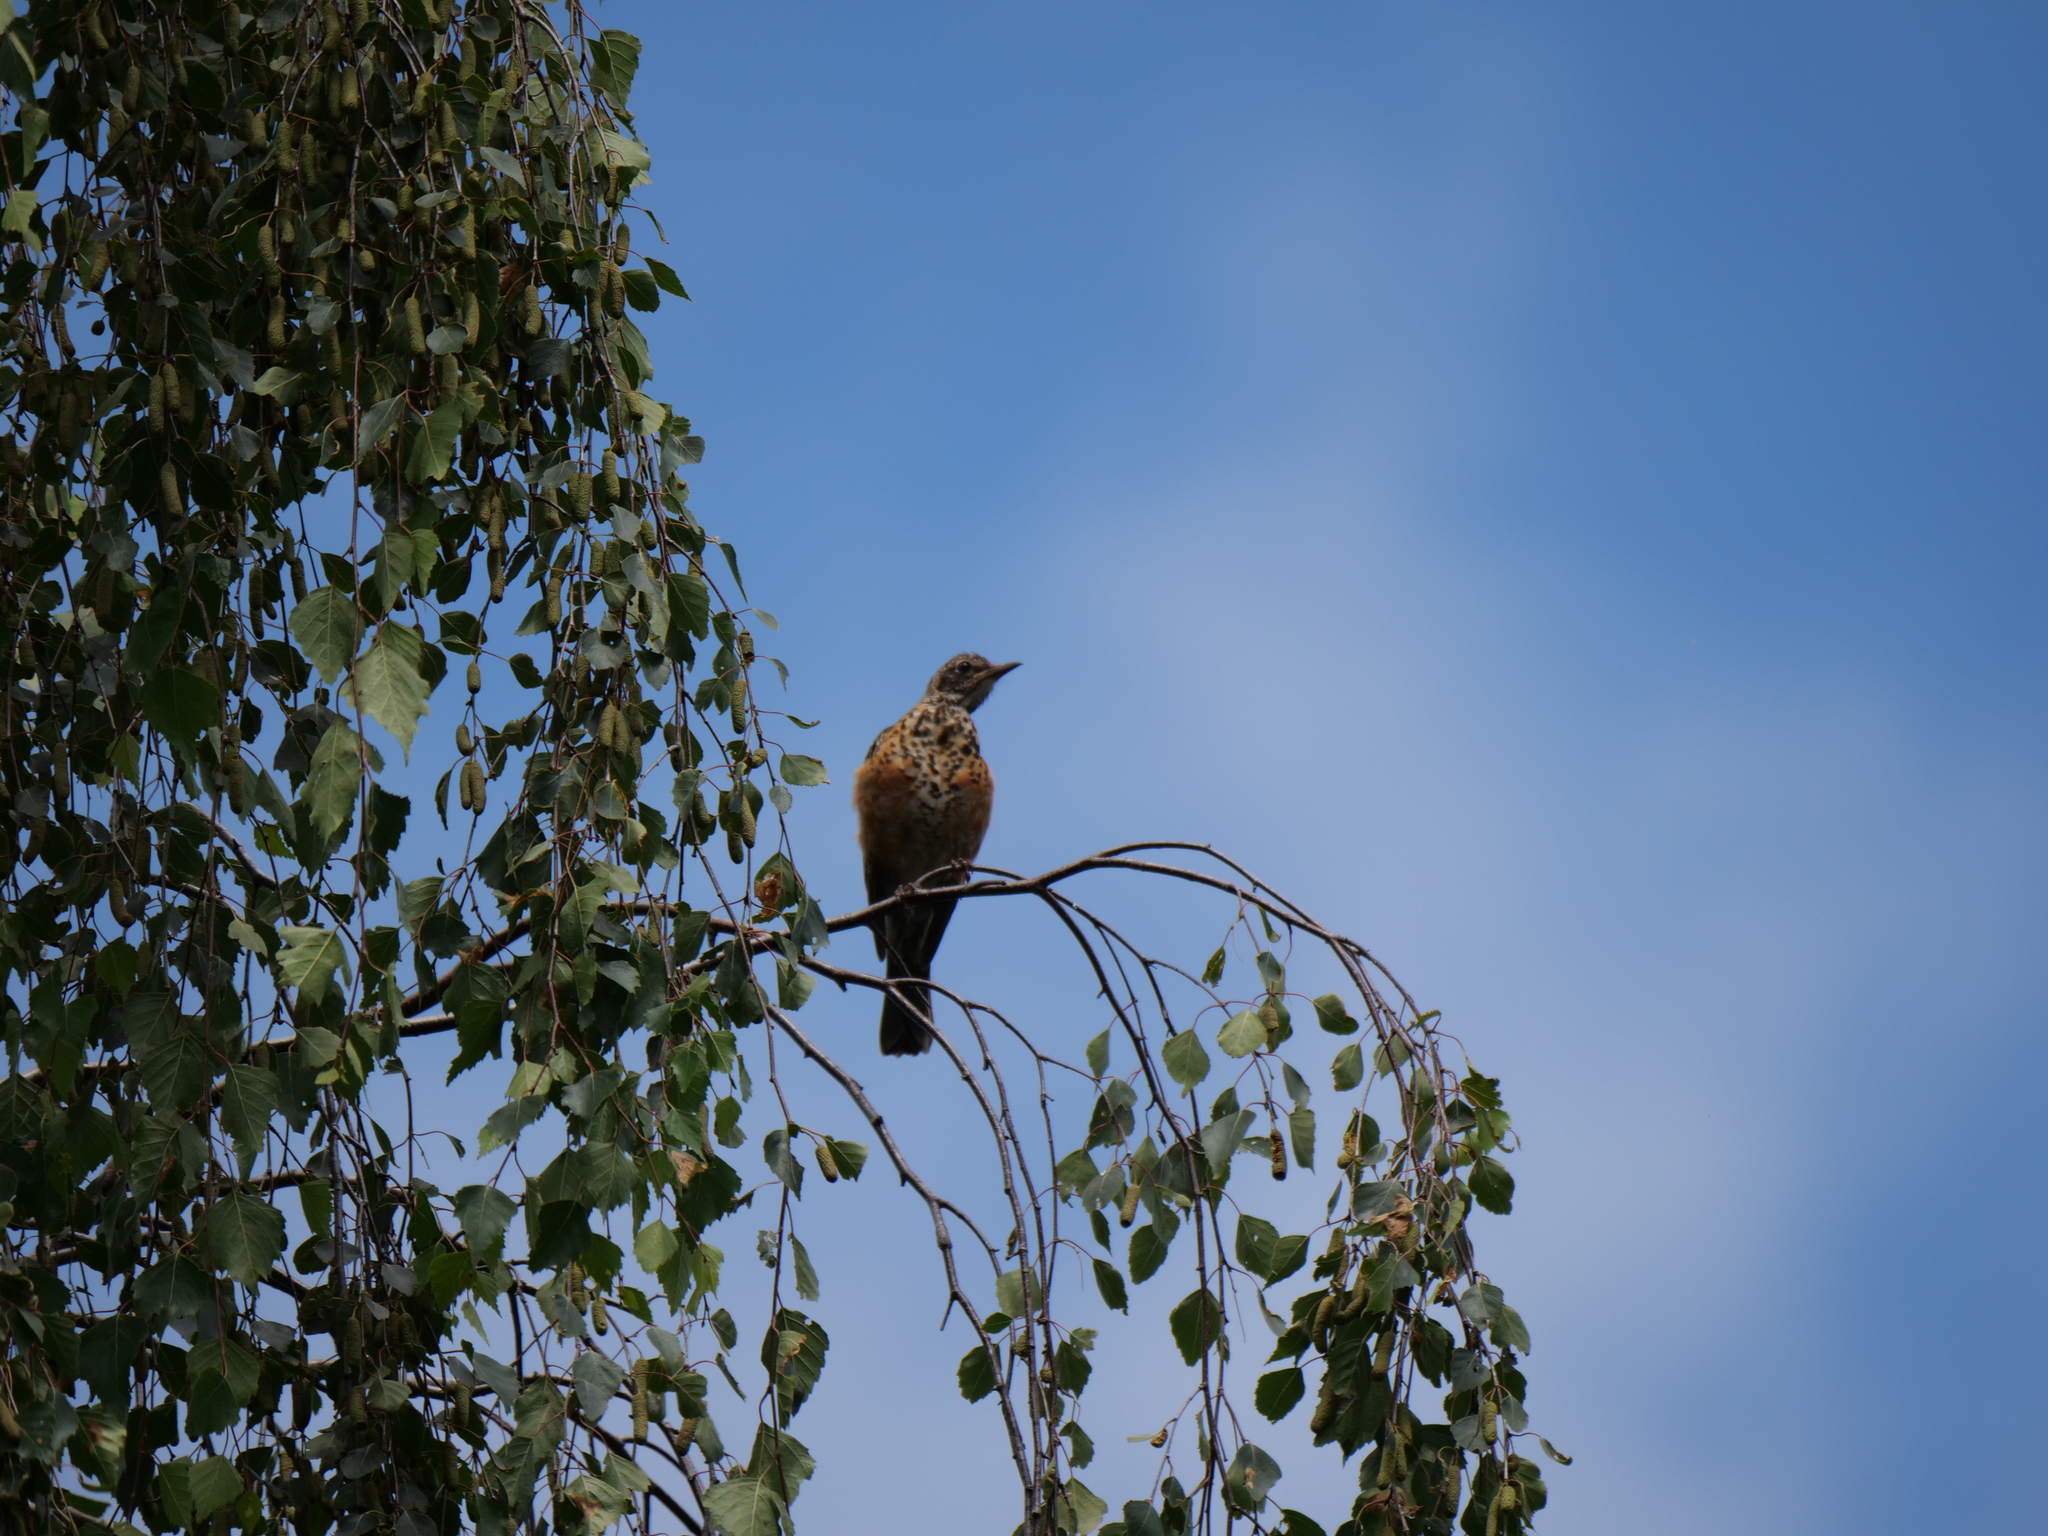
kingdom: Animalia
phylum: Chordata
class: Aves
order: Passeriformes
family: Turdidae
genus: Turdus
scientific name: Turdus migratorius
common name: American robin
